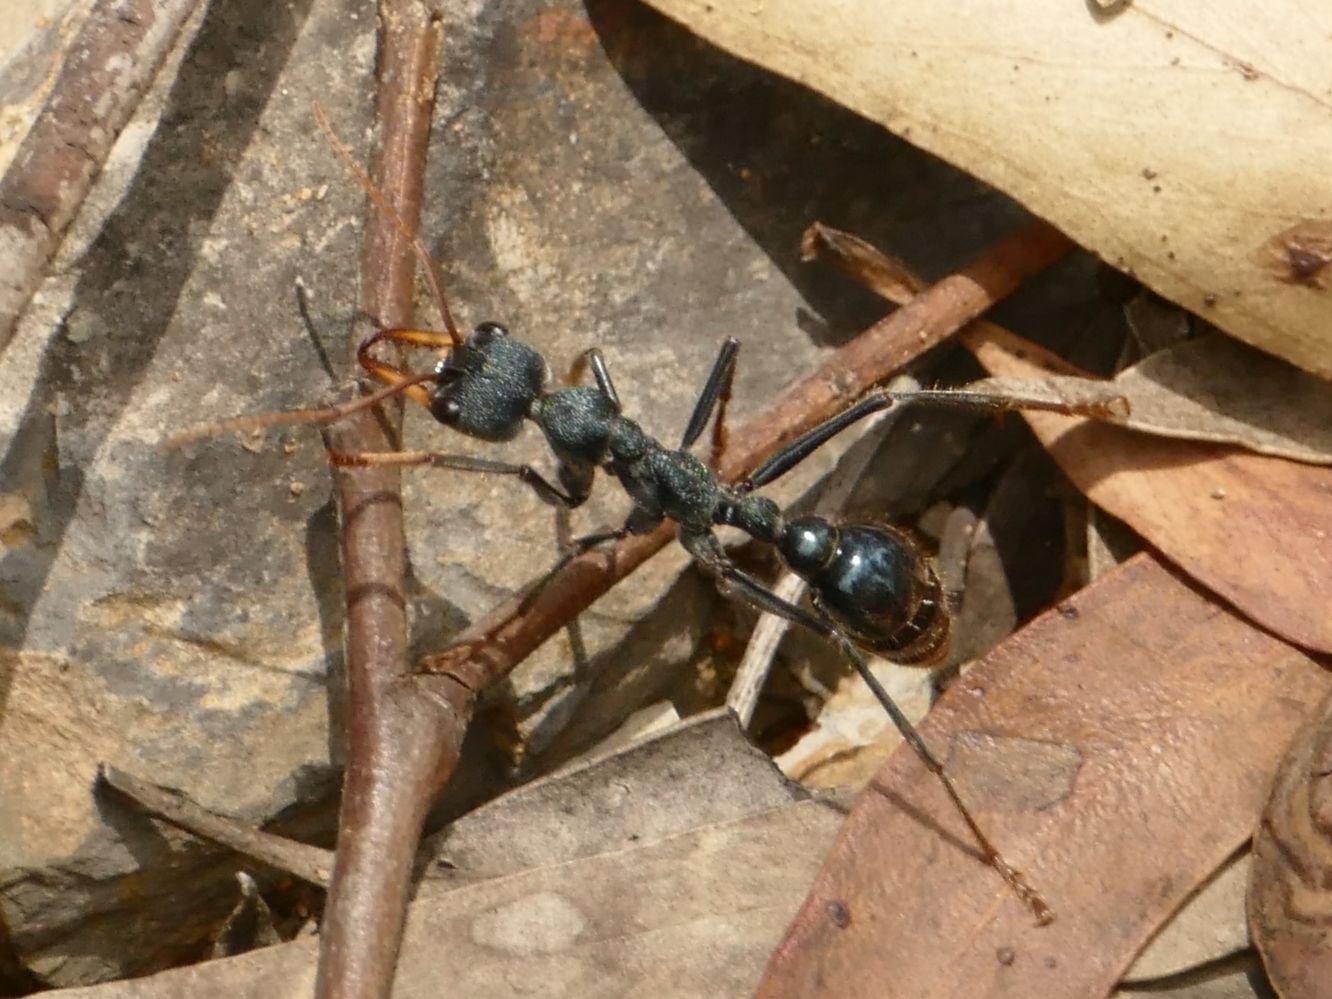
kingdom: Animalia
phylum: Arthropoda
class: Insecta
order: Hymenoptera
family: Formicidae
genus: Myrmecia
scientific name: Myrmecia tarsata
